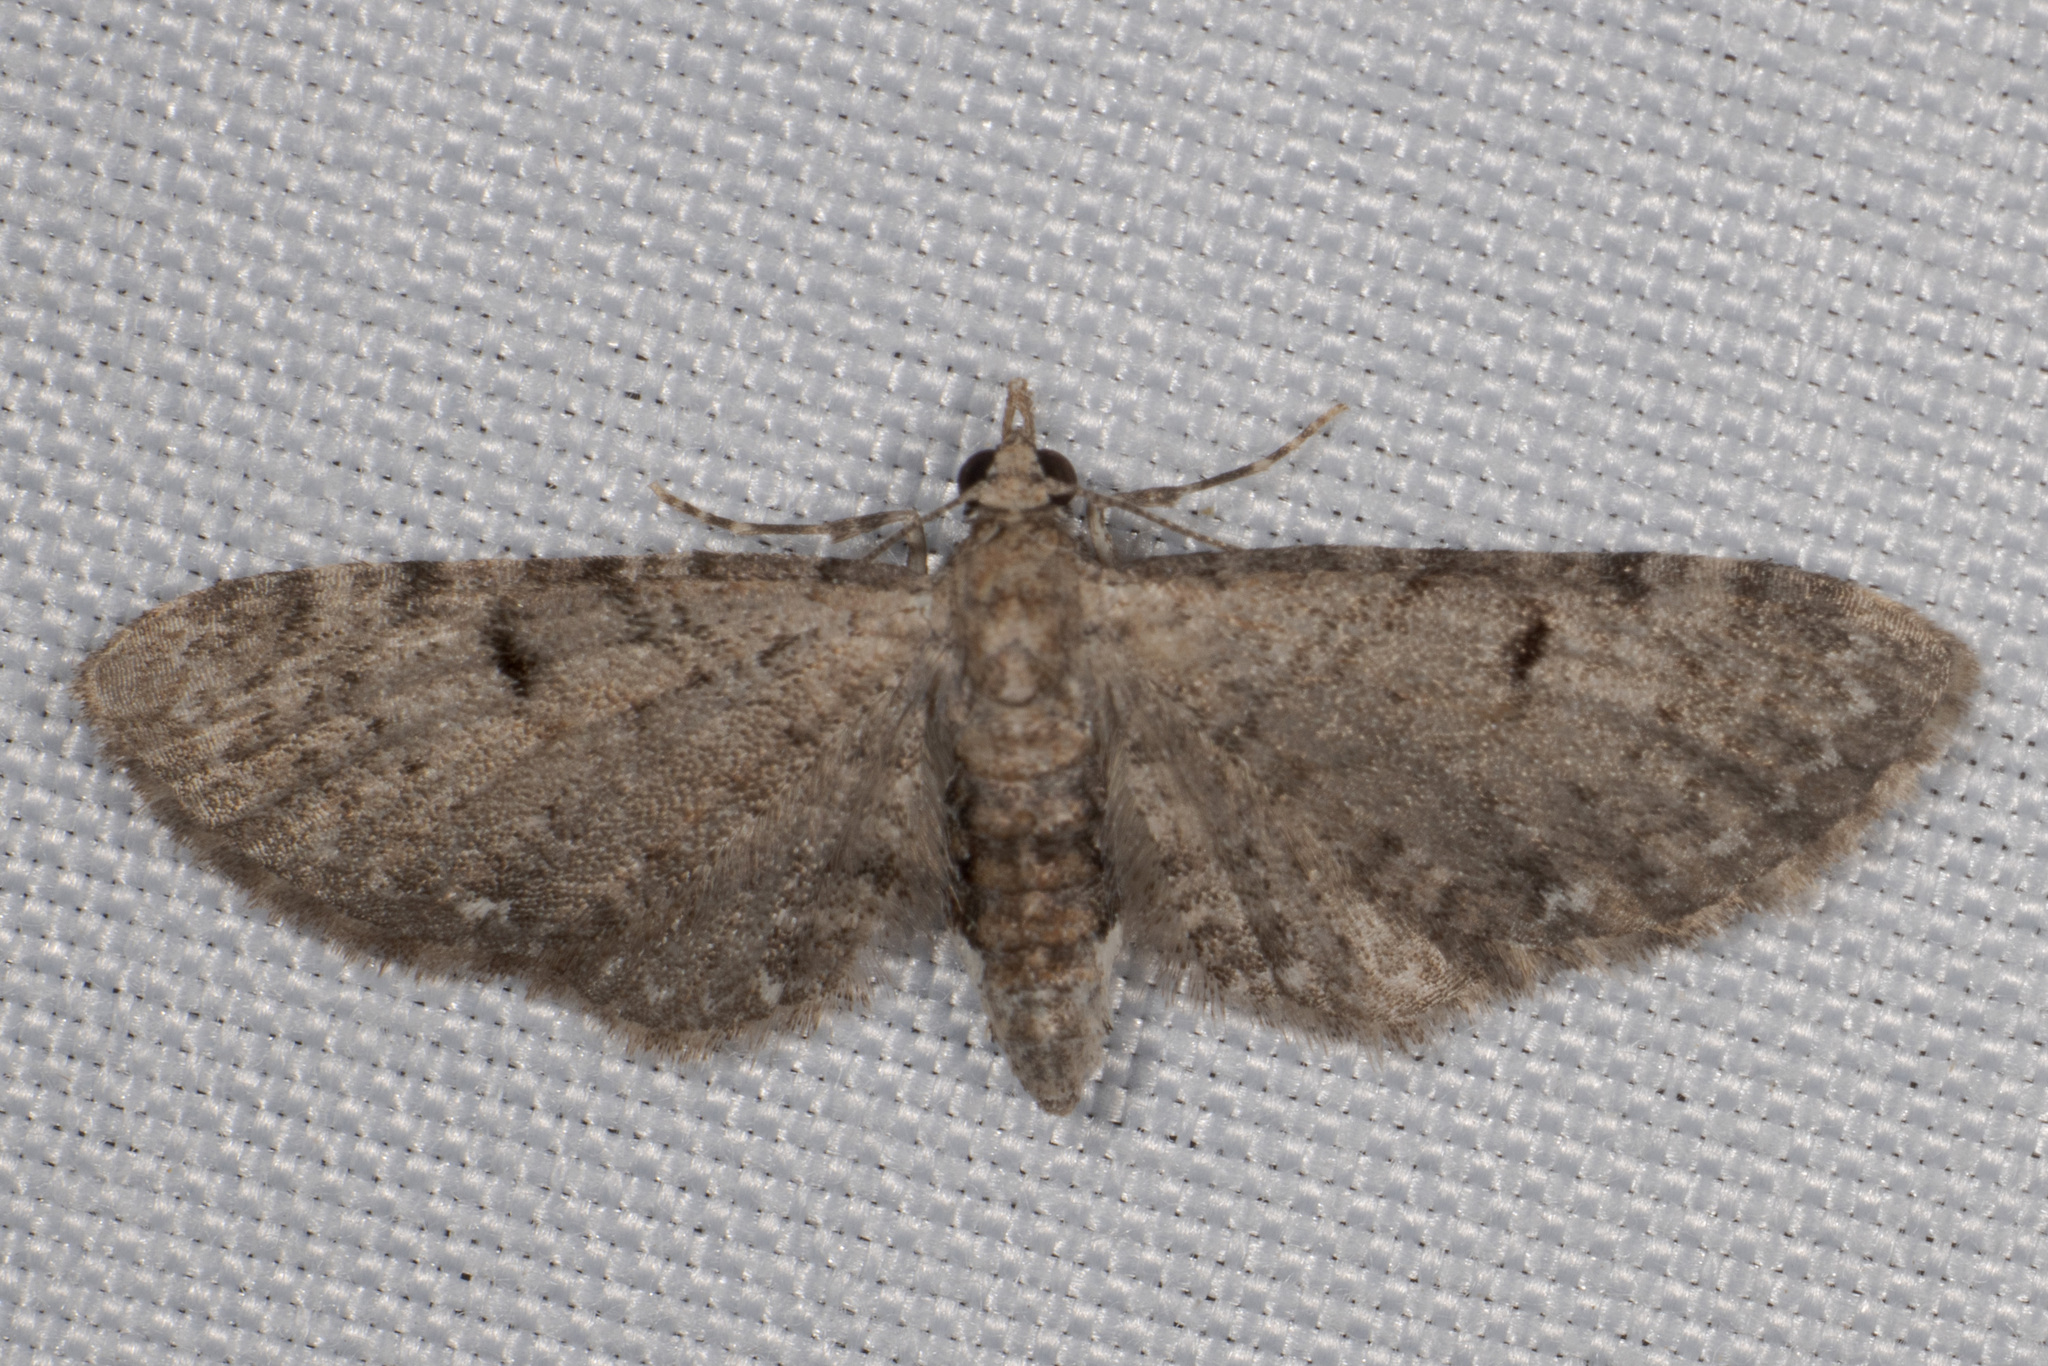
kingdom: Animalia
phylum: Arthropoda
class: Insecta
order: Lepidoptera
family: Geometridae
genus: Eupithecia
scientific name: Eupithecia miserulata
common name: Common eupithecia
